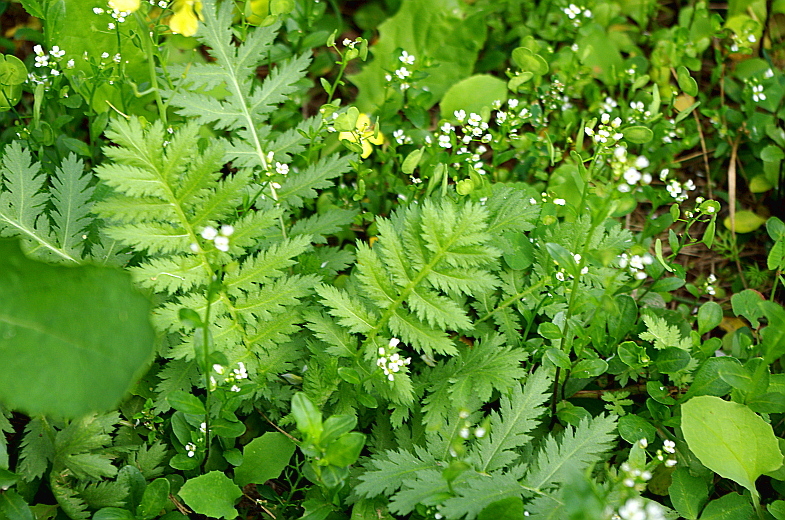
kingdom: Plantae
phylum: Tracheophyta
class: Magnoliopsida
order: Asterales
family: Asteraceae
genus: Tanacetum
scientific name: Tanacetum vulgare
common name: Common tansy
